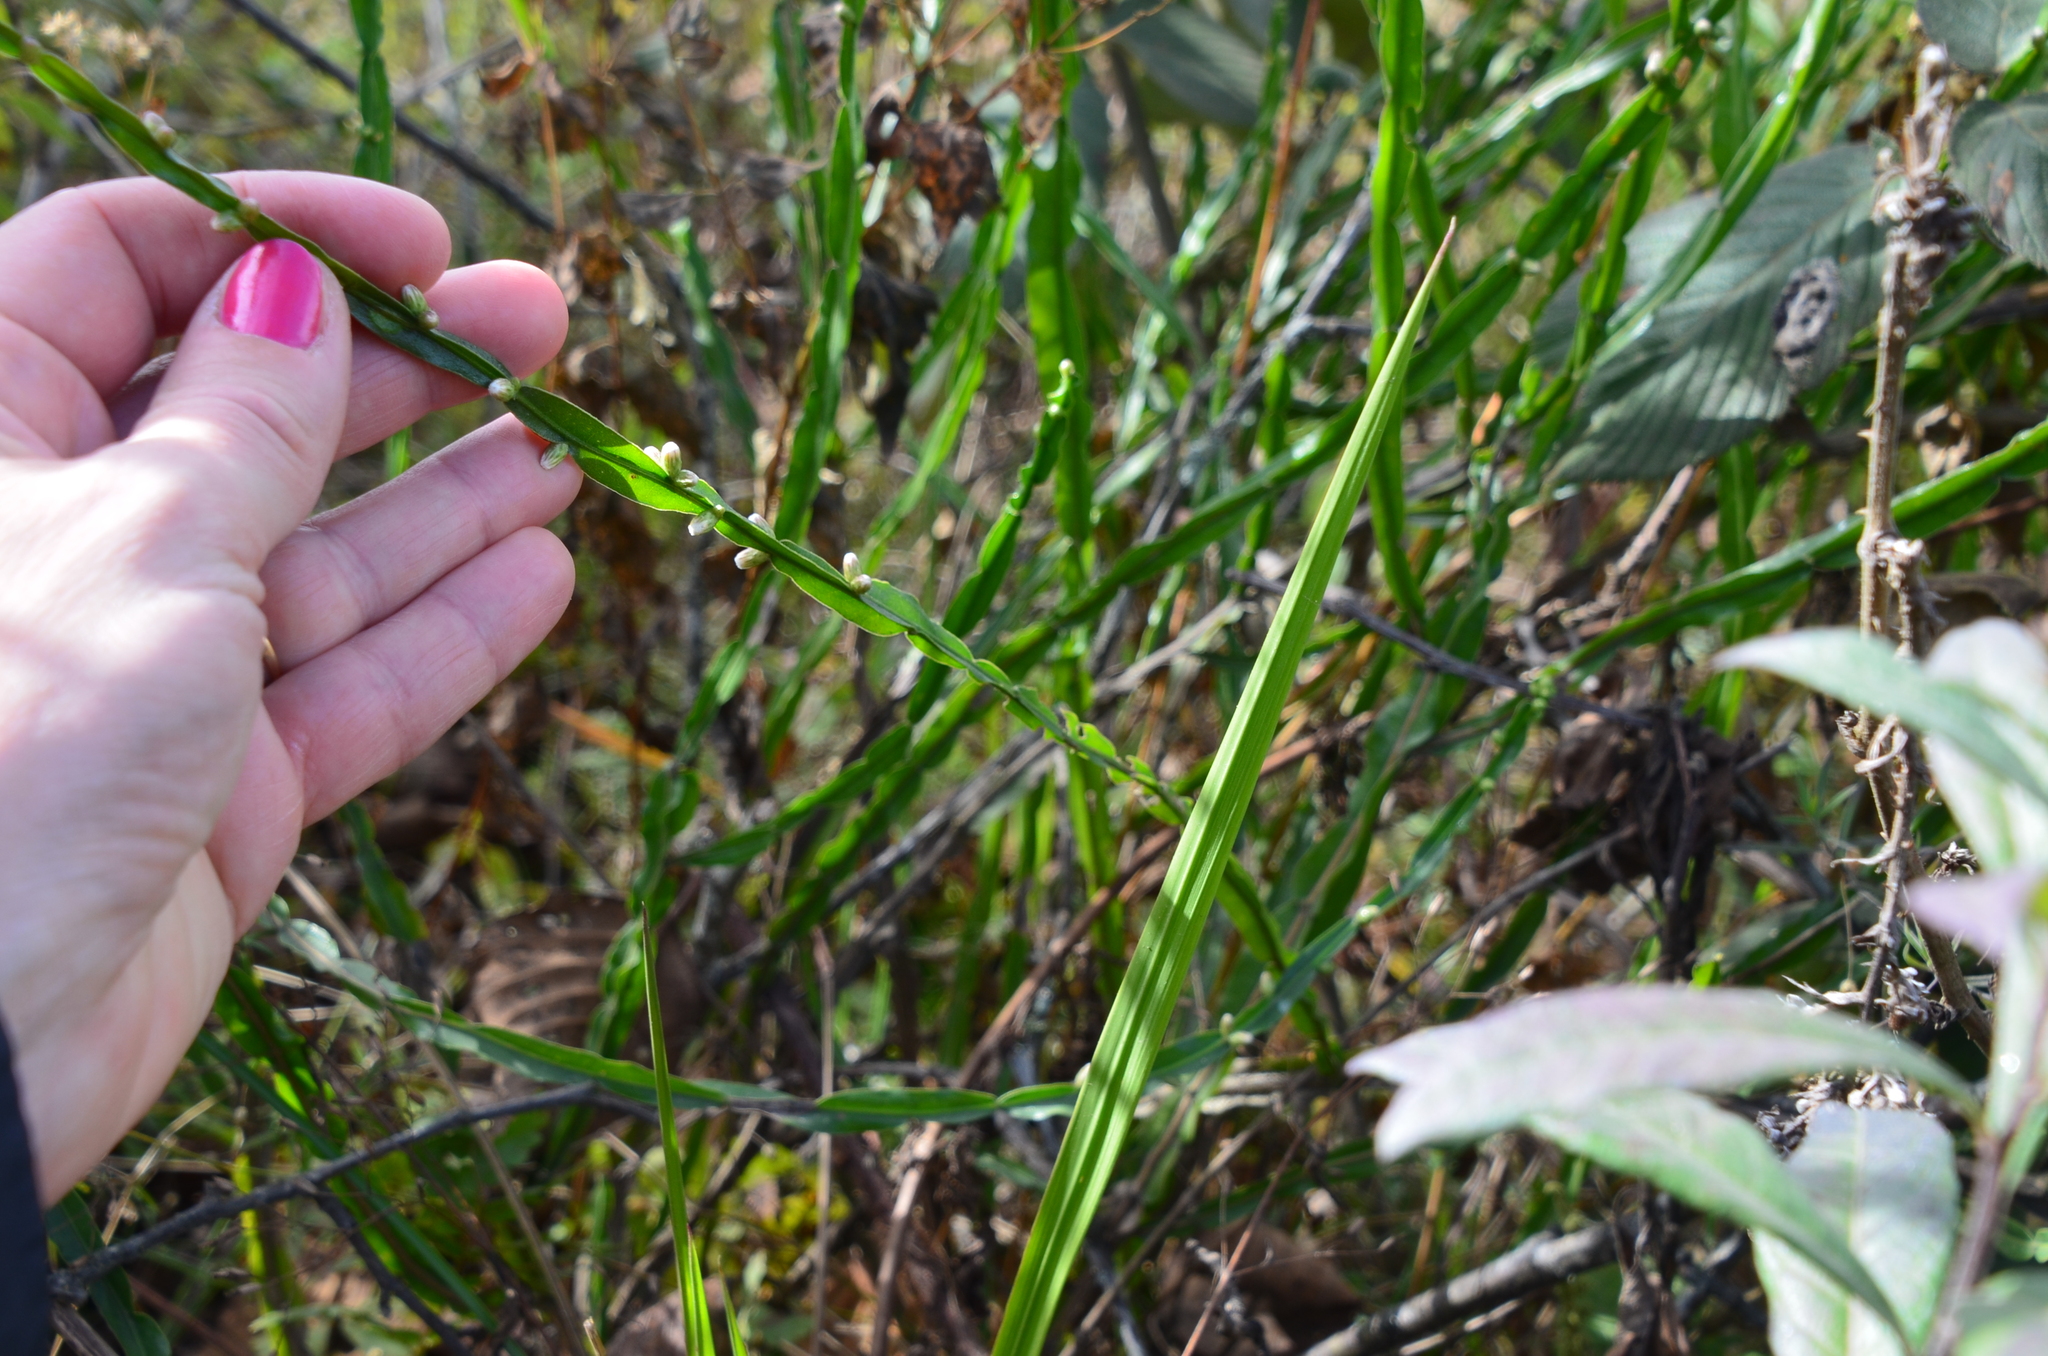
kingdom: Plantae
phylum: Tracheophyta
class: Magnoliopsida
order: Asterales
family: Asteraceae
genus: Baccharis
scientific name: Baccharis trimera
